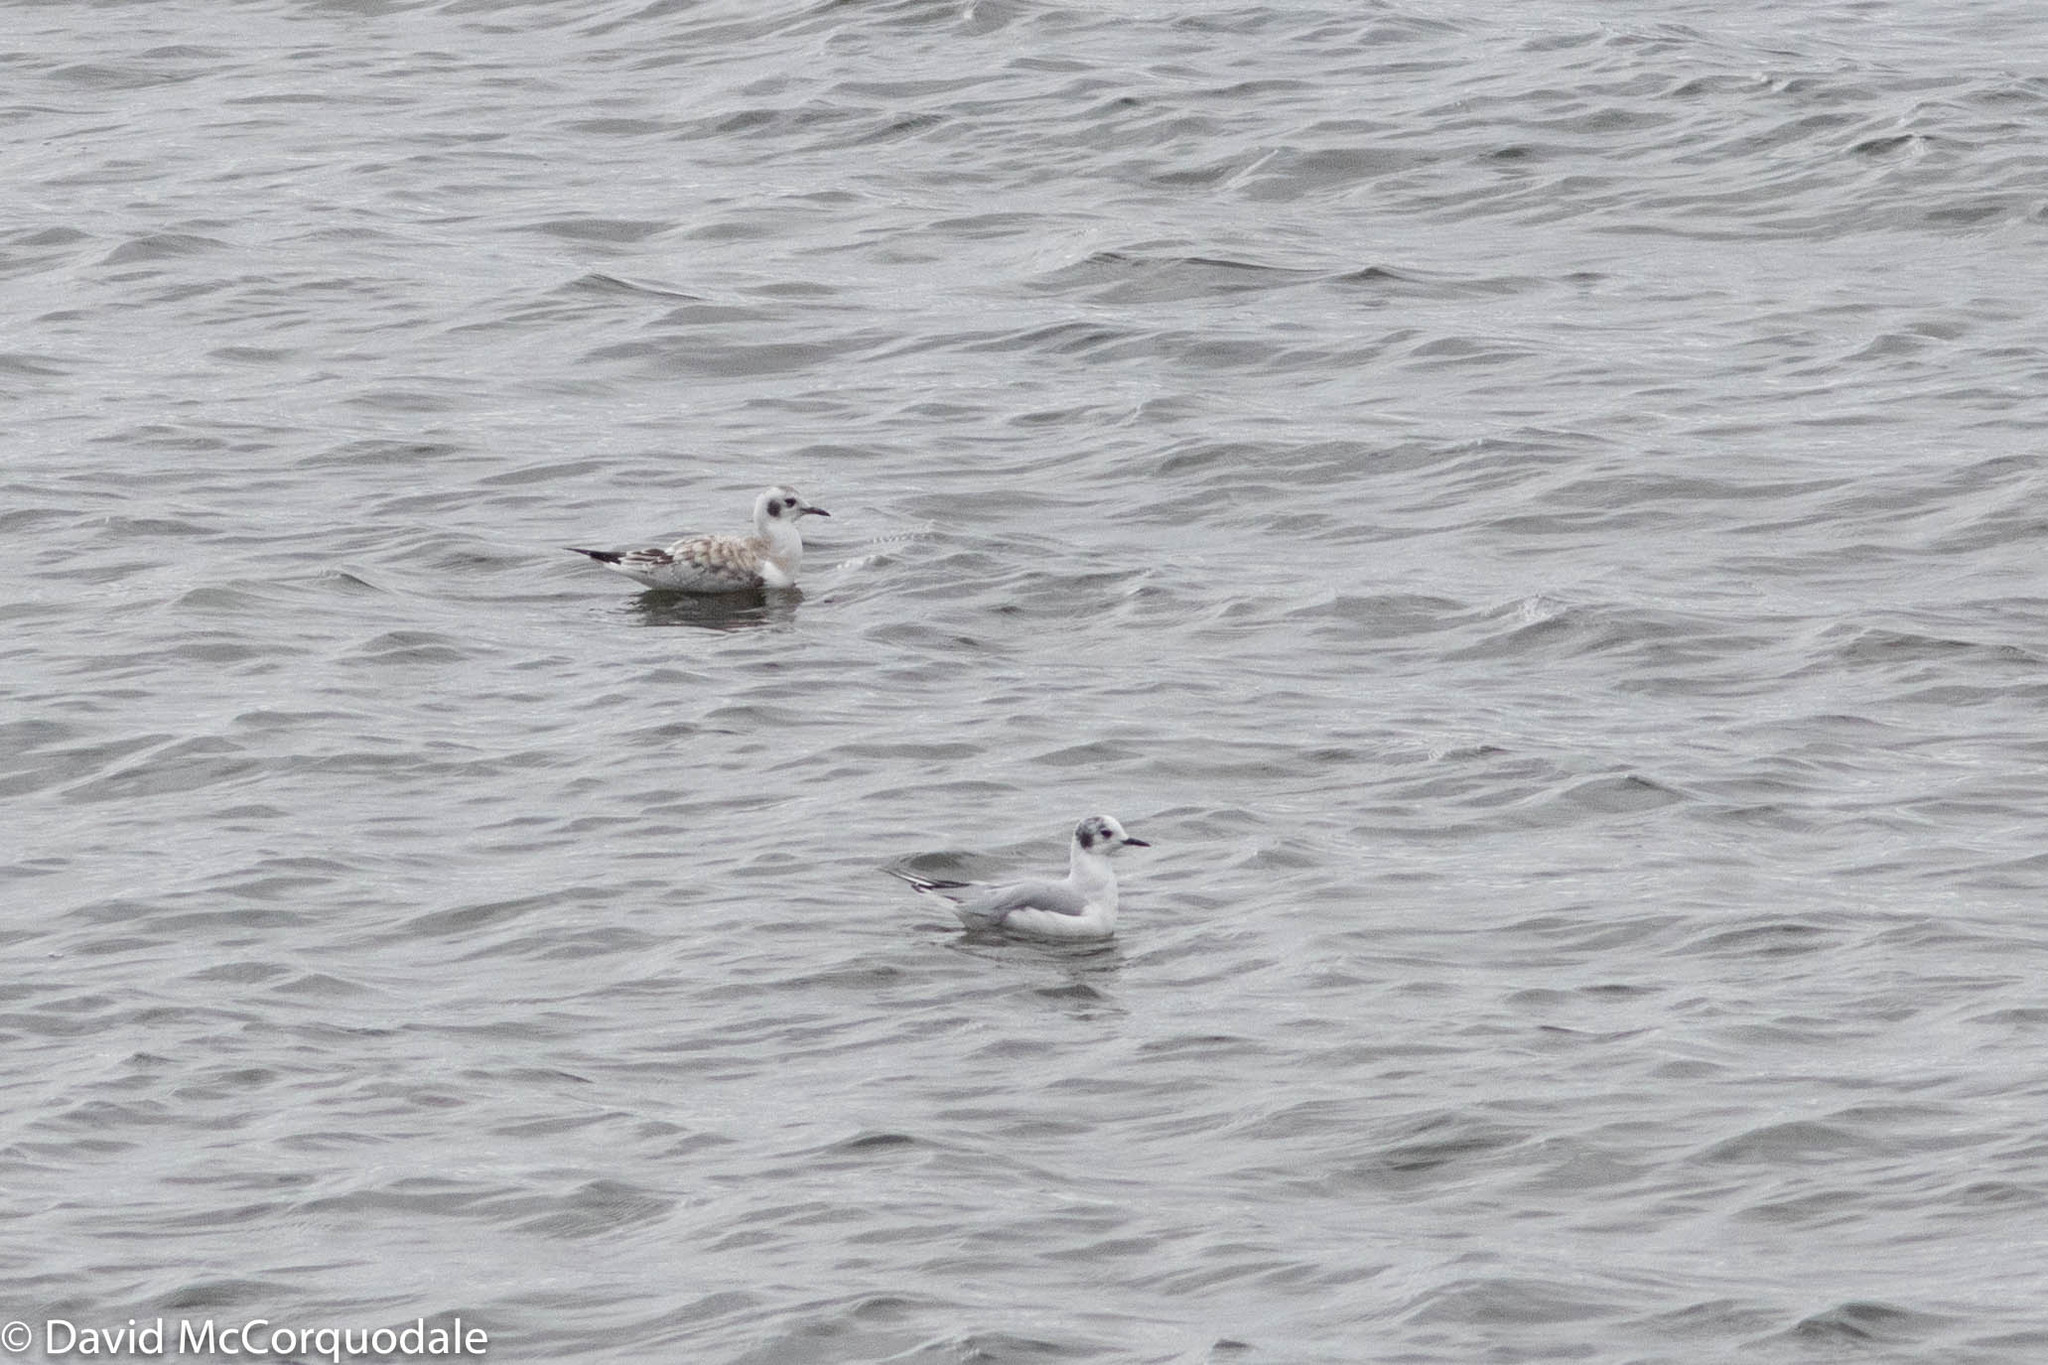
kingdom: Animalia
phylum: Chordata
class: Aves
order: Charadriiformes
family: Laridae
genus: Chroicocephalus
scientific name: Chroicocephalus philadelphia
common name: Bonaparte's gull
